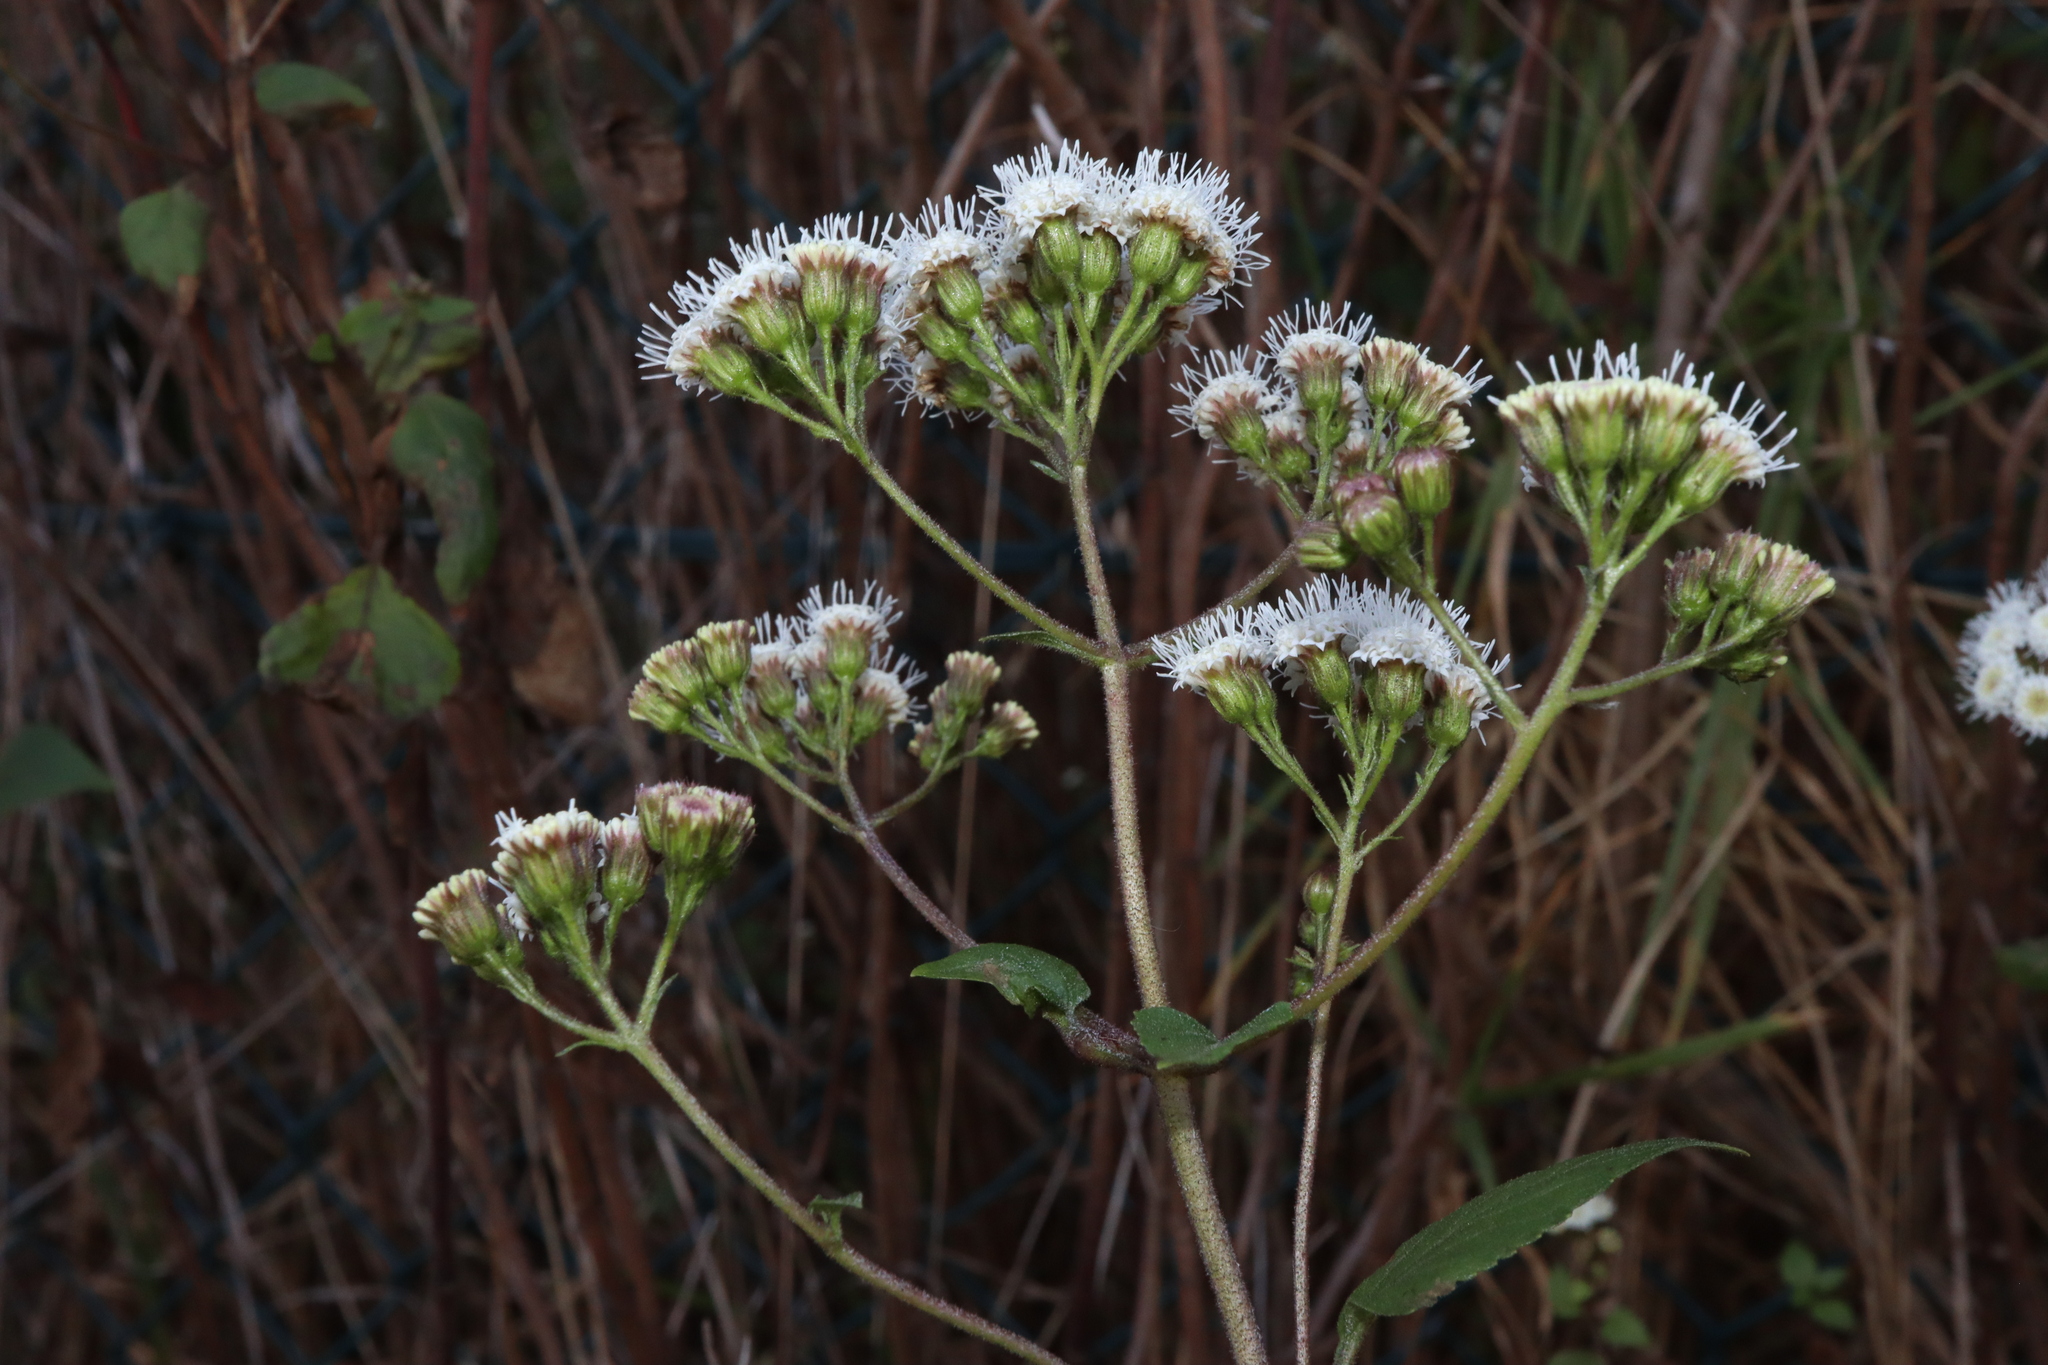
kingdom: Plantae
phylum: Tracheophyta
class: Magnoliopsida
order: Asterales
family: Asteraceae
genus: Ageratina
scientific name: Ageratina adenophora
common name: Sticky snakeroot
